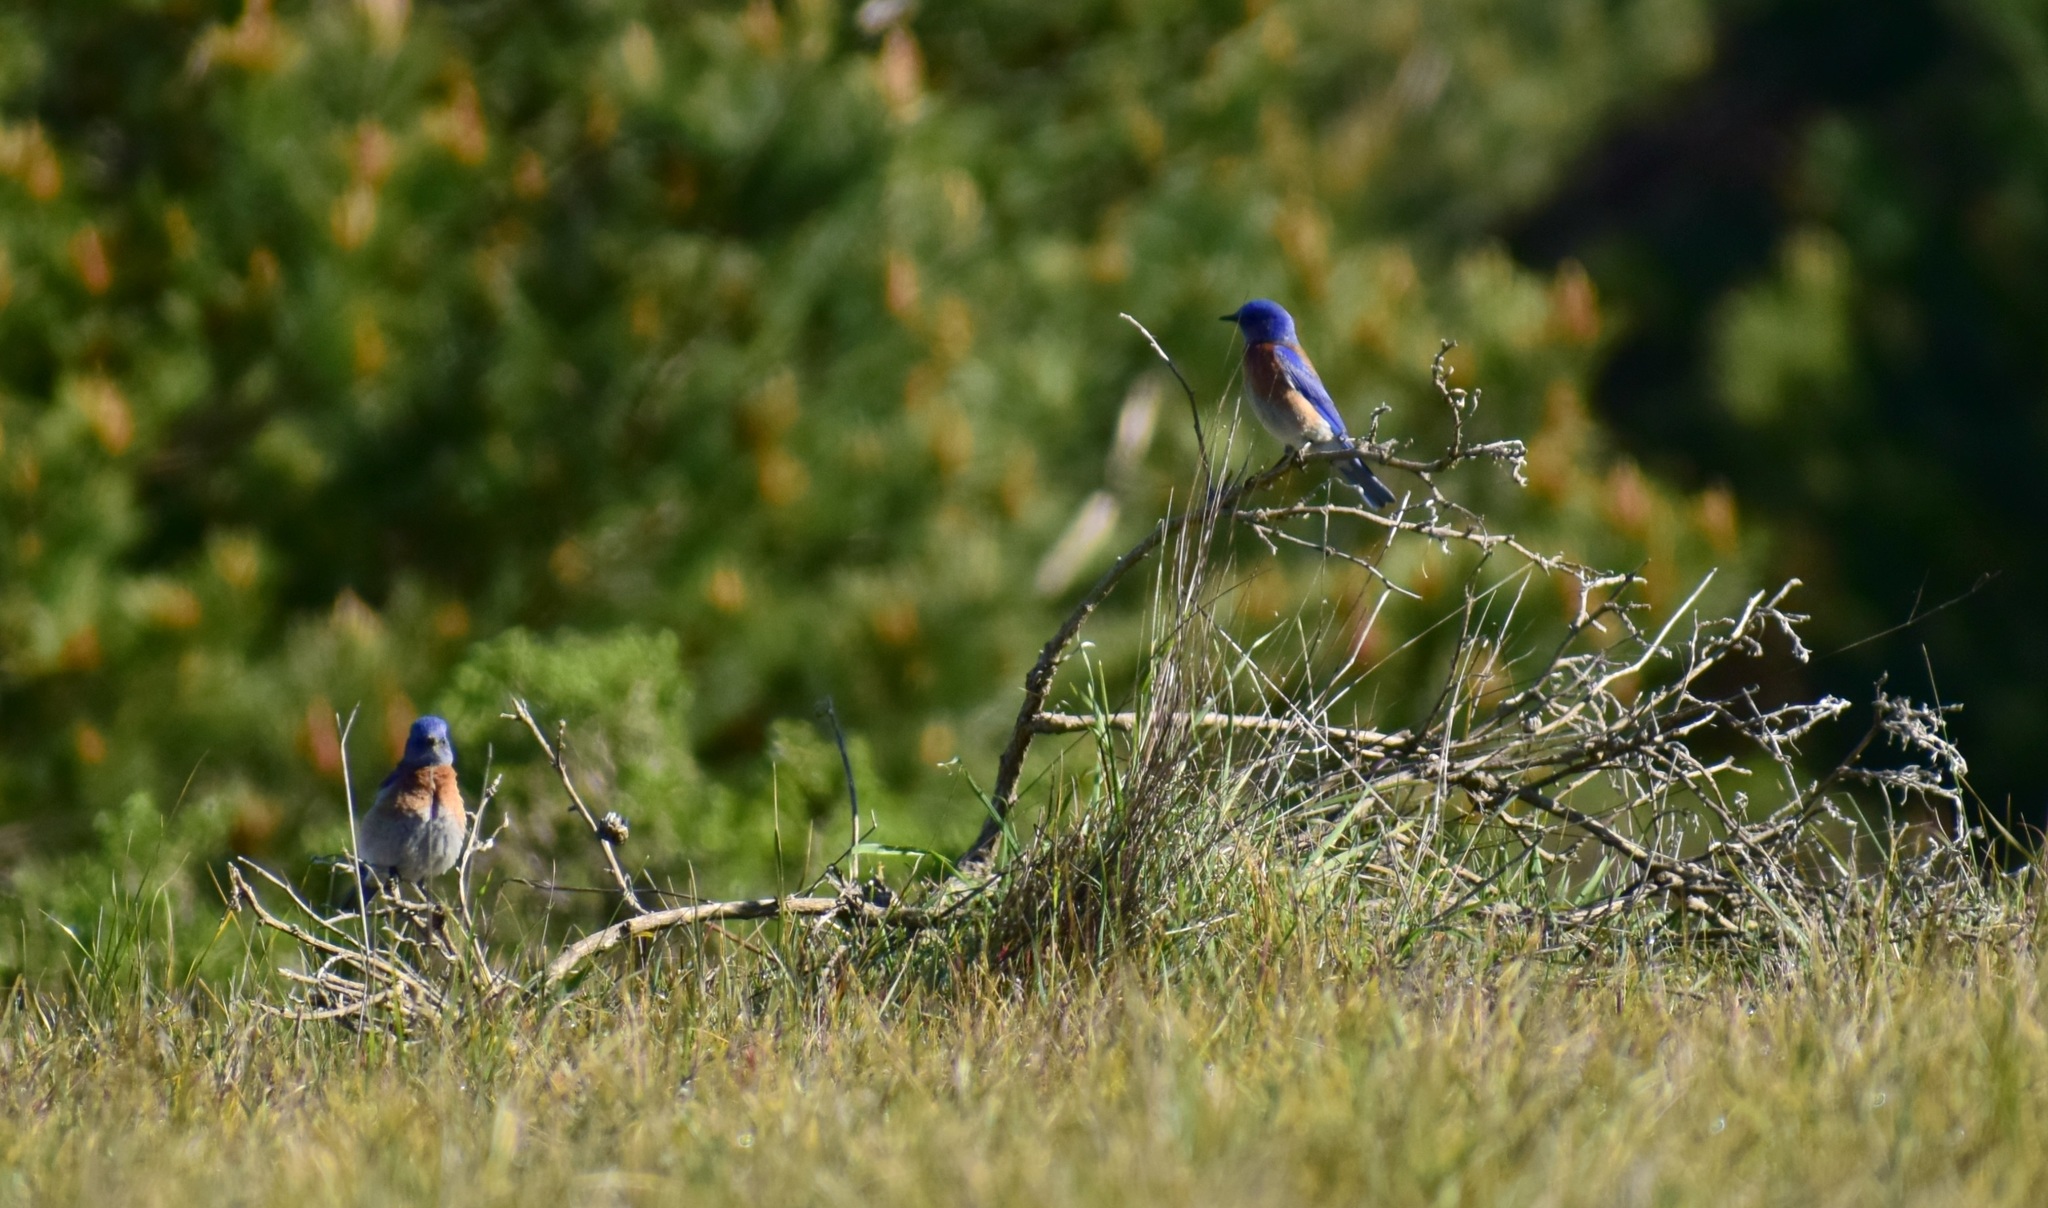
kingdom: Animalia
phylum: Chordata
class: Aves
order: Passeriformes
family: Turdidae
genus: Sialia
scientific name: Sialia mexicana
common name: Western bluebird
